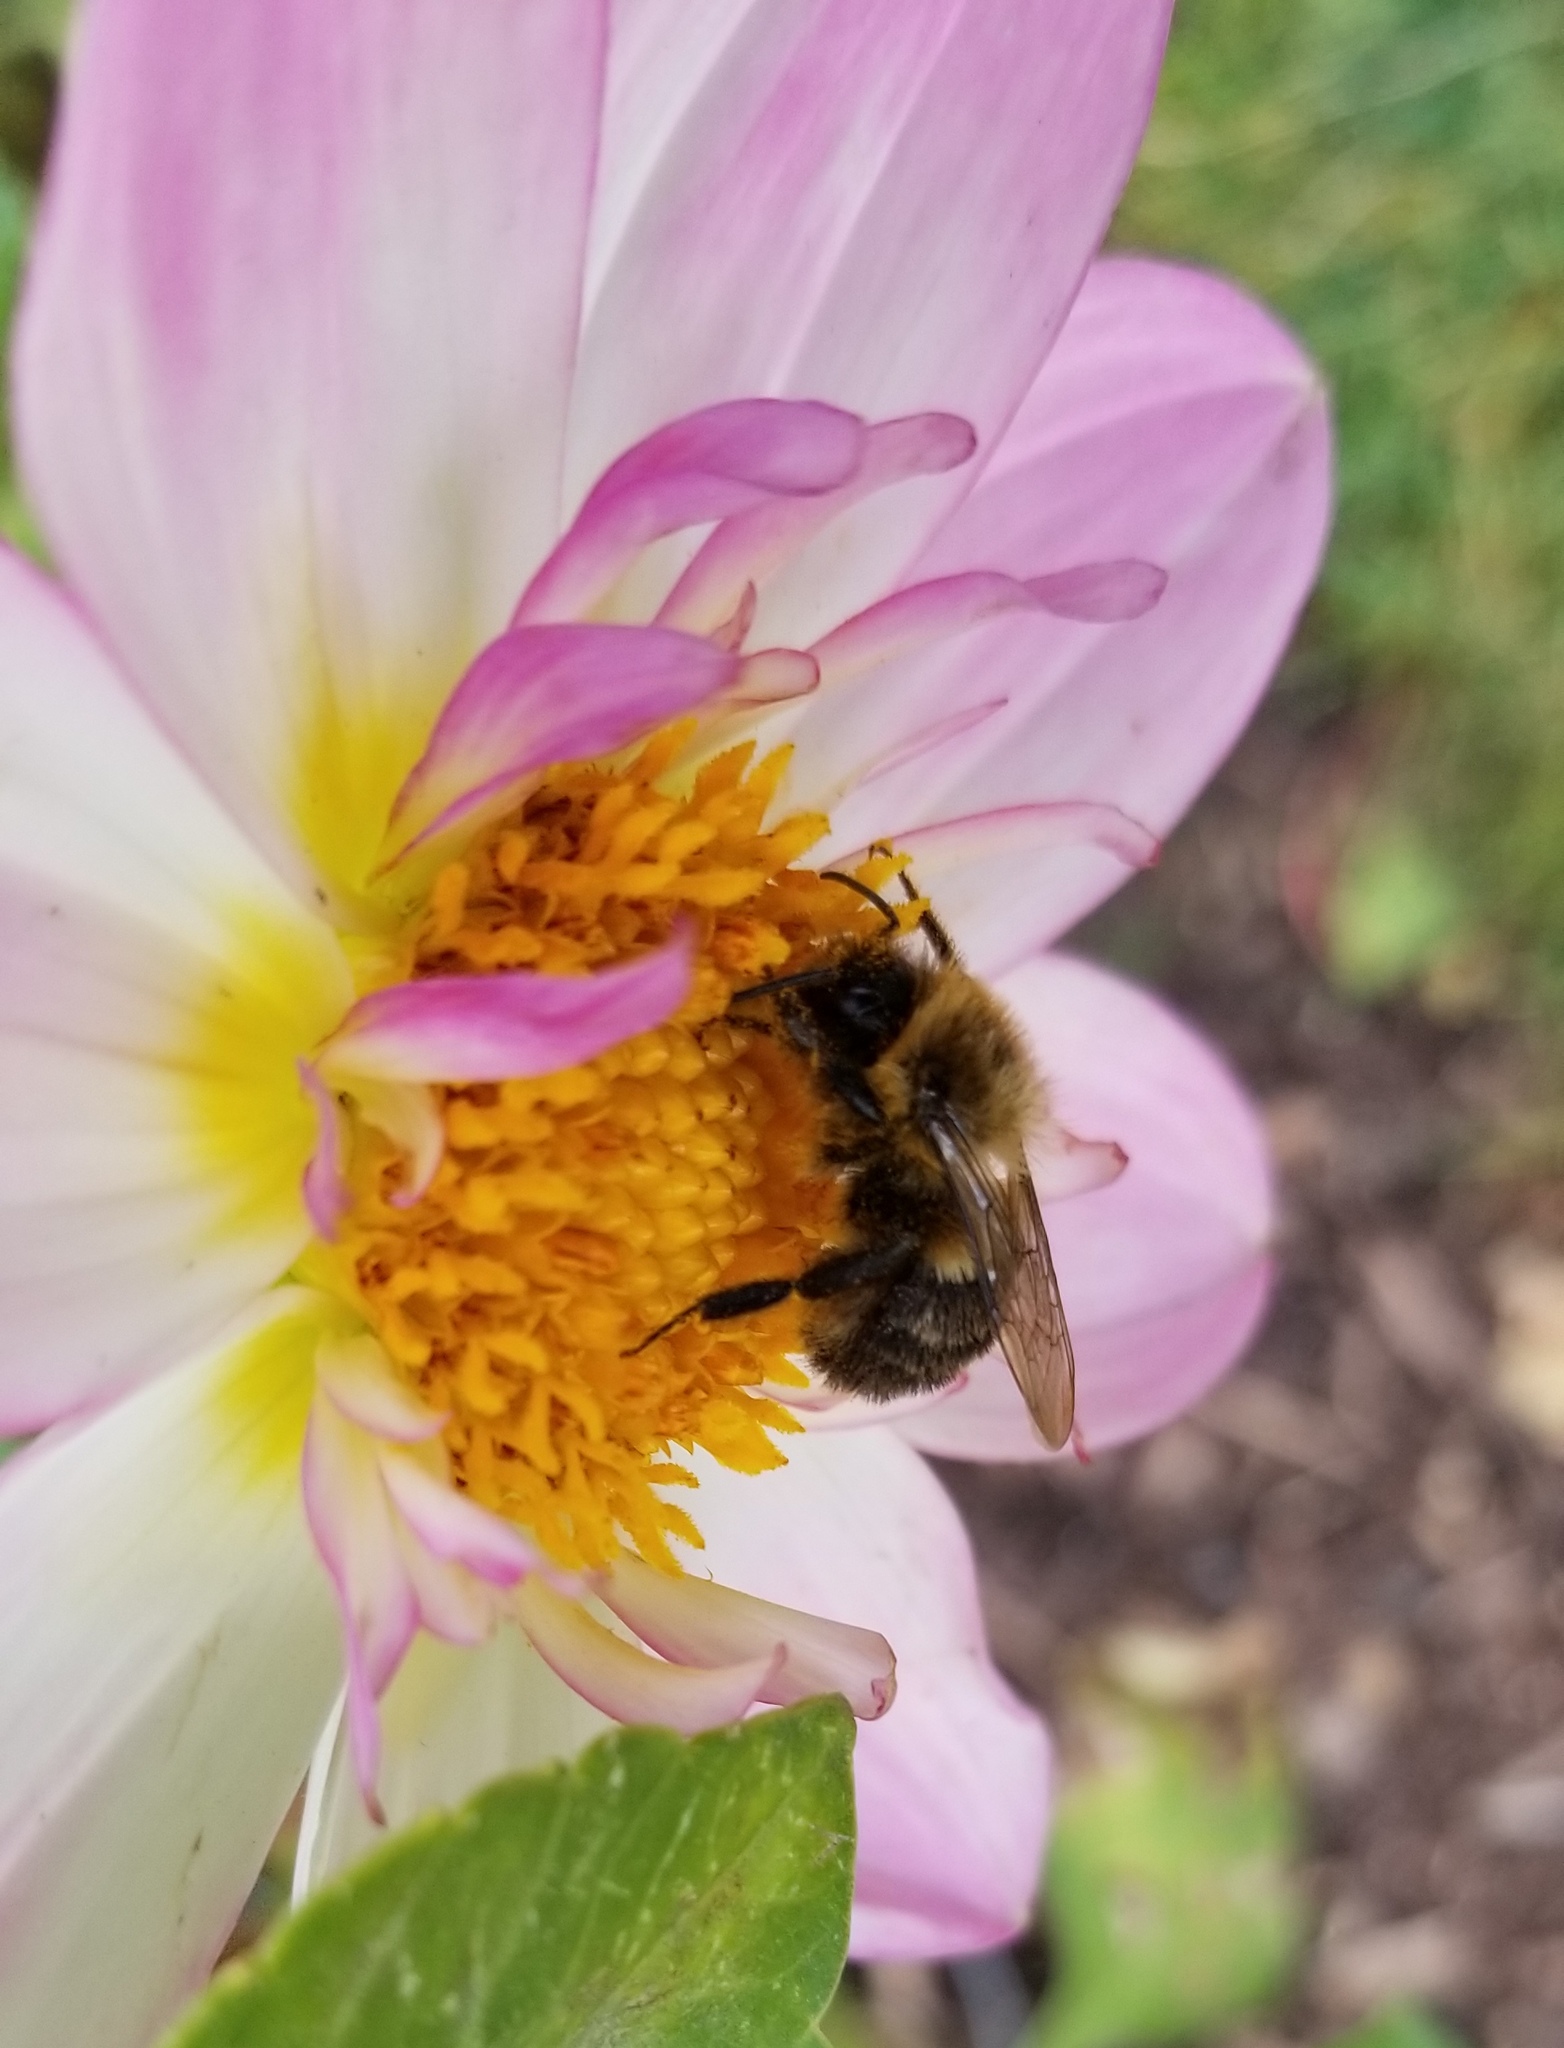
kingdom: Animalia
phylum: Arthropoda
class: Insecta
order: Hymenoptera
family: Apidae
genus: Bombus
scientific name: Bombus impatiens
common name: Common eastern bumble bee
